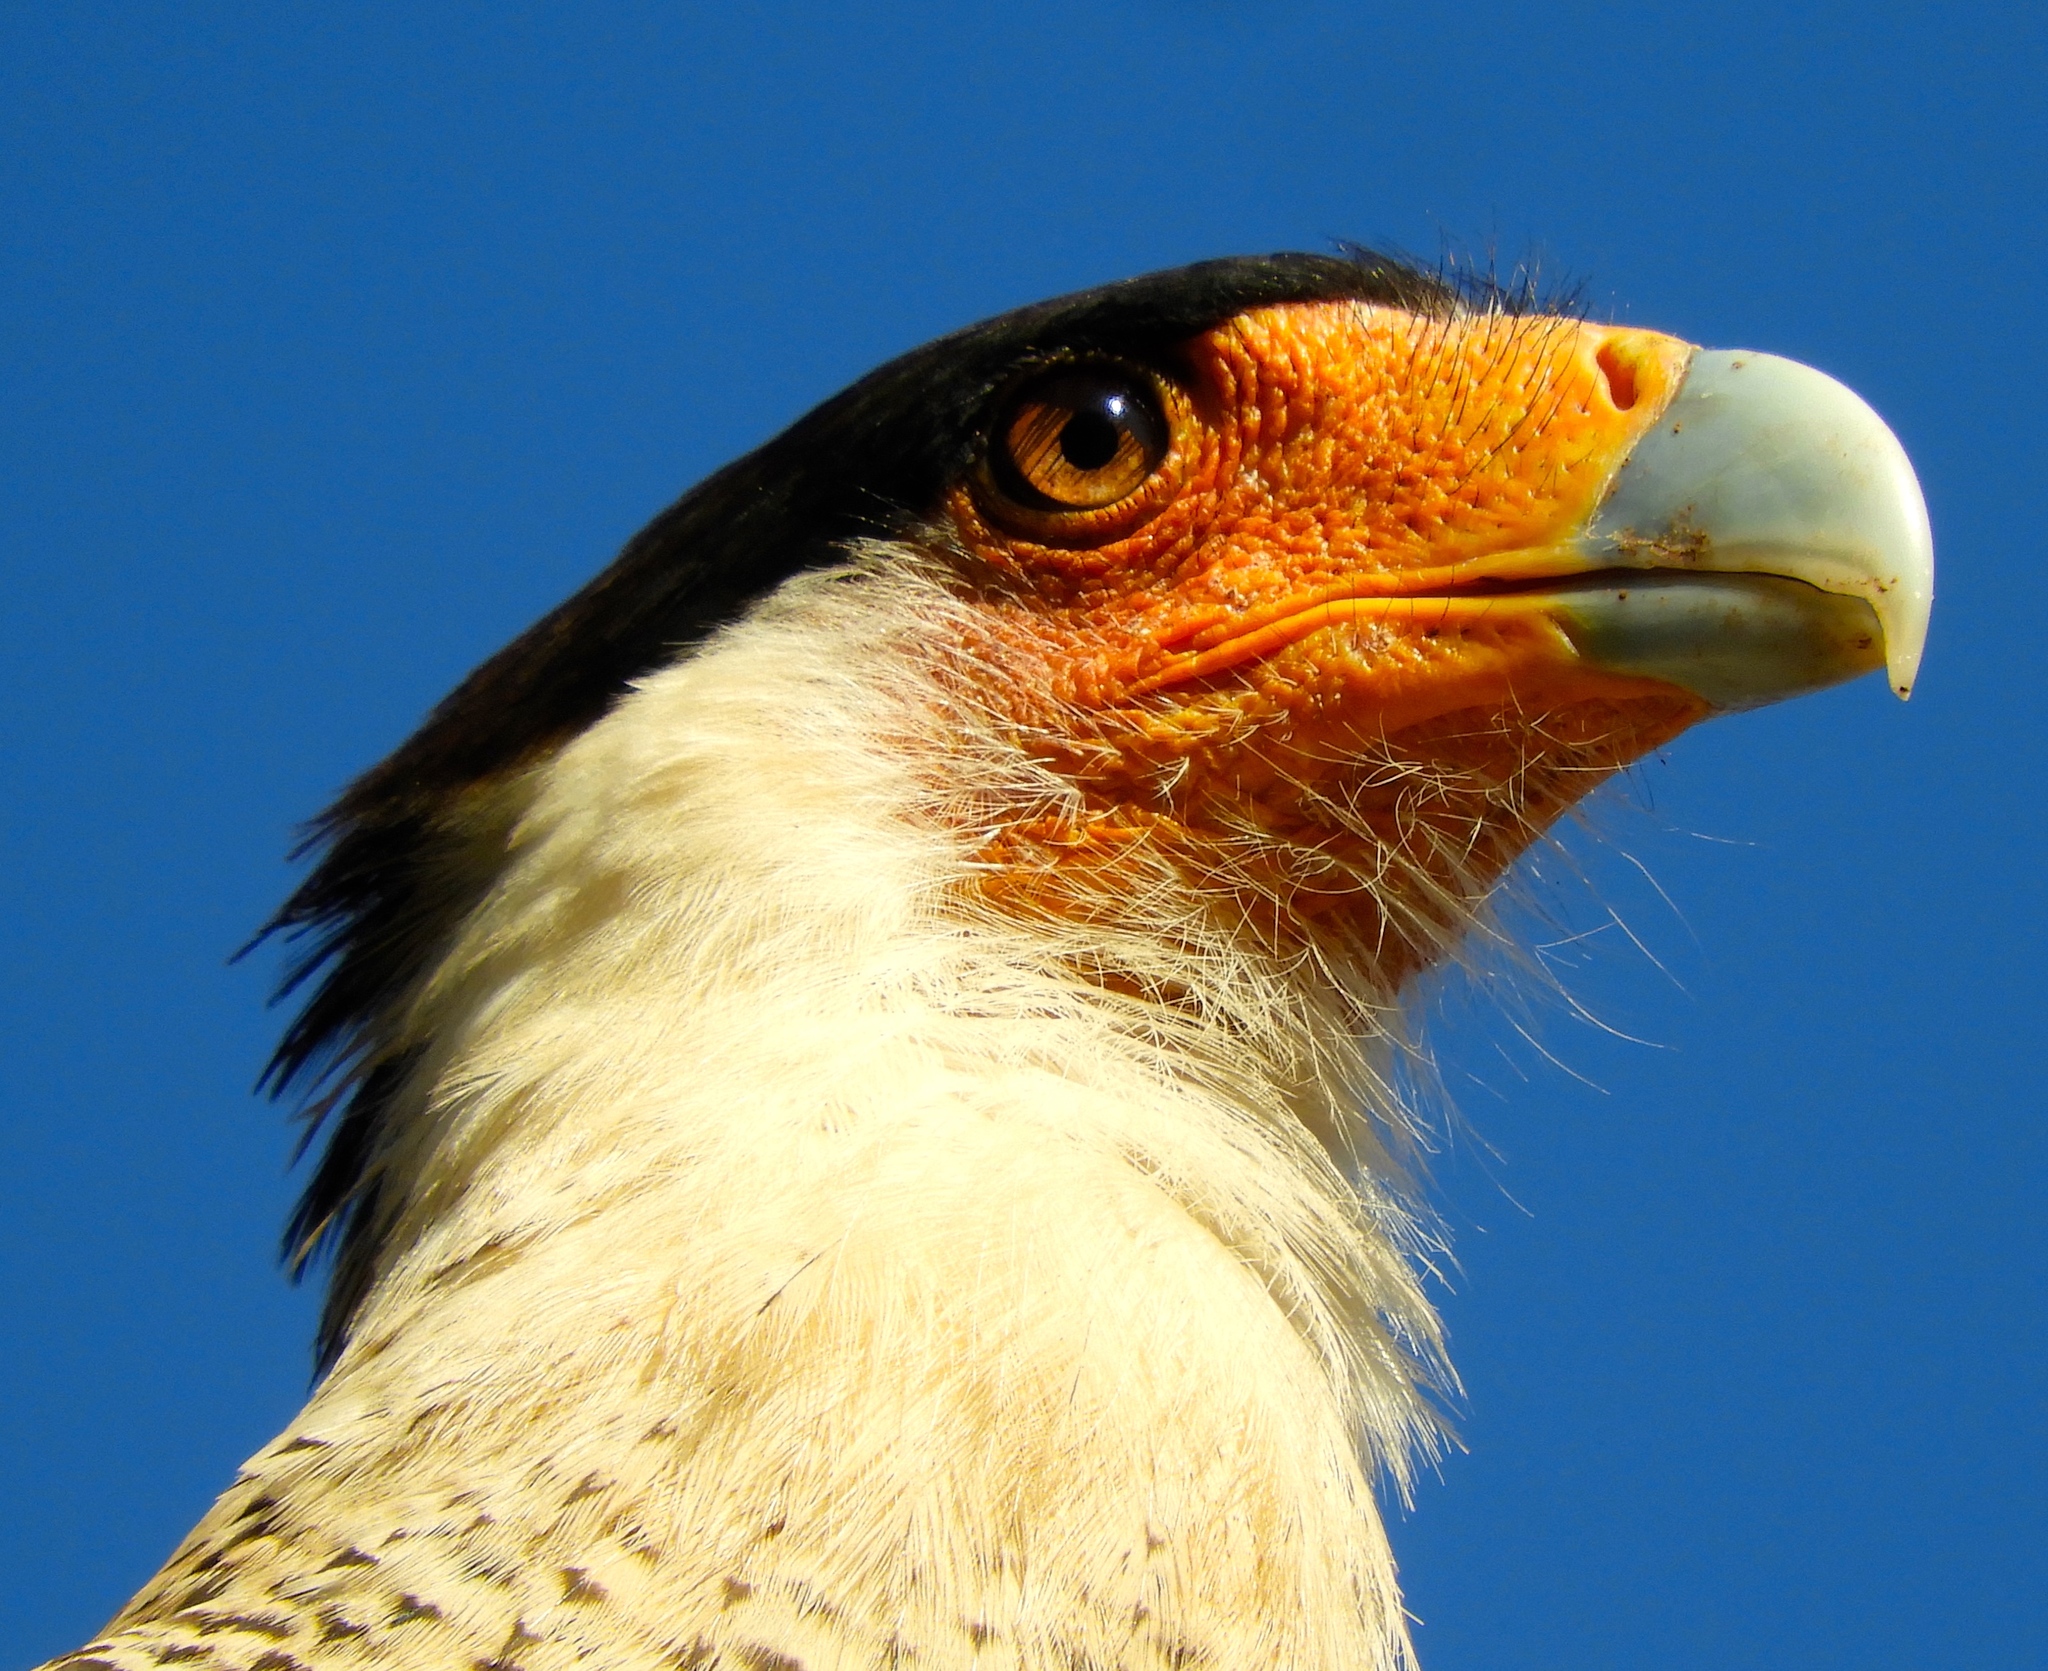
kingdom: Animalia
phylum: Chordata
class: Aves
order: Falconiformes
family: Falconidae
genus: Caracara
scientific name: Caracara plancus
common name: Southern caracara
